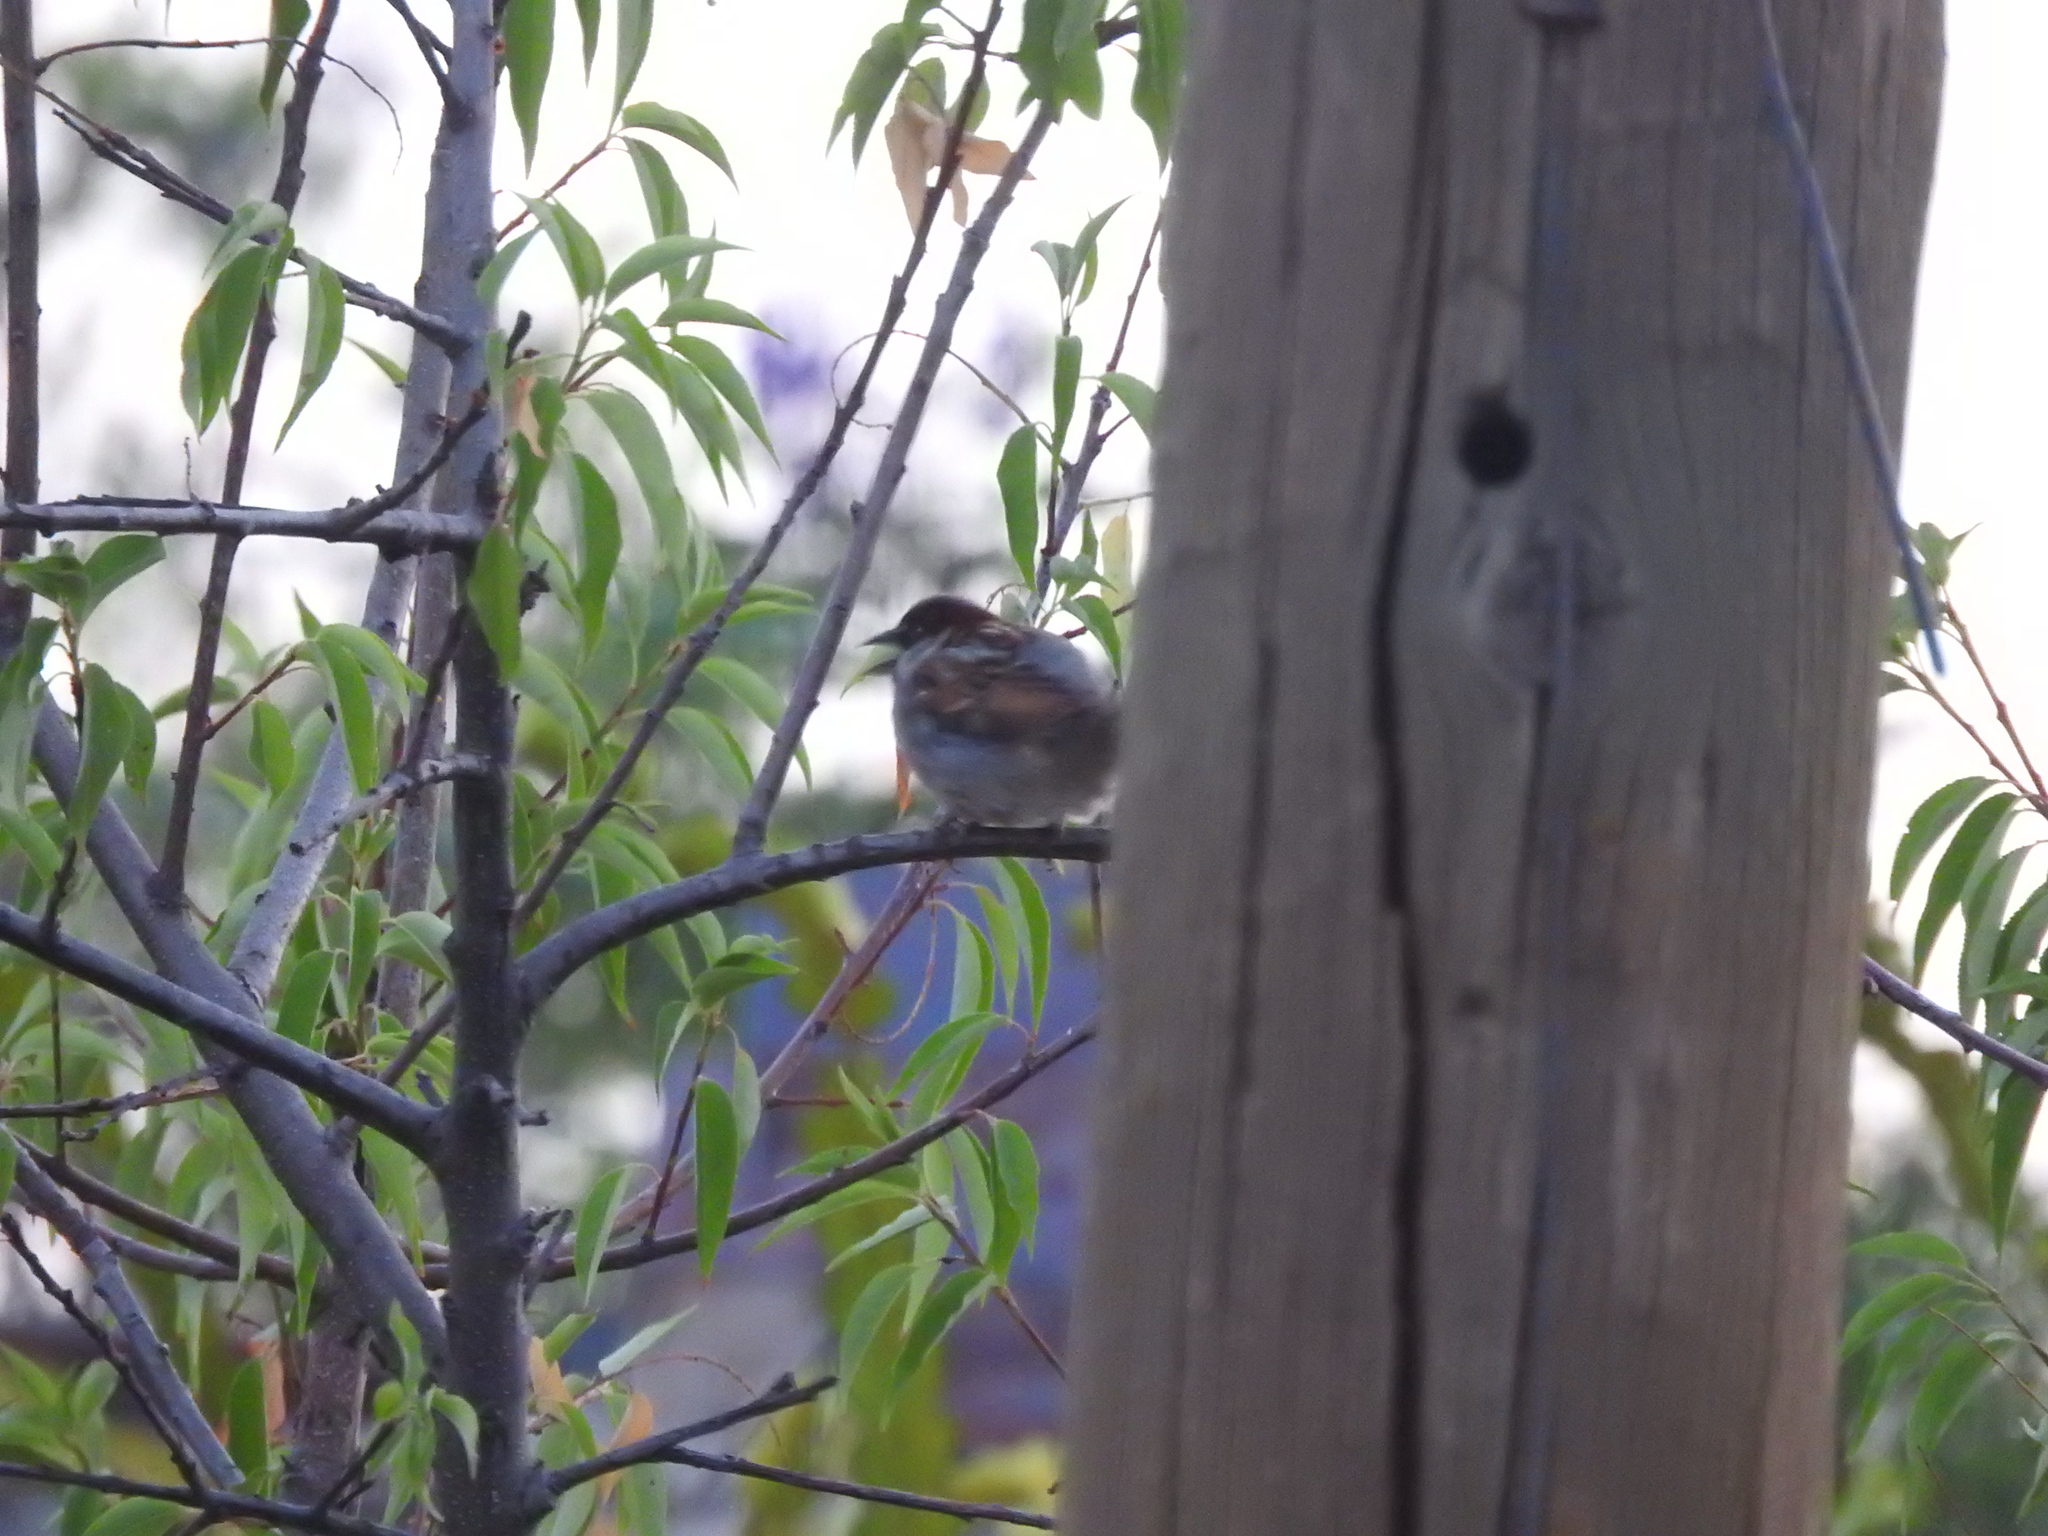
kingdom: Animalia
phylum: Chordata
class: Aves
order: Passeriformes
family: Passeridae
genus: Passer
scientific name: Passer domesticus
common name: House sparrow
